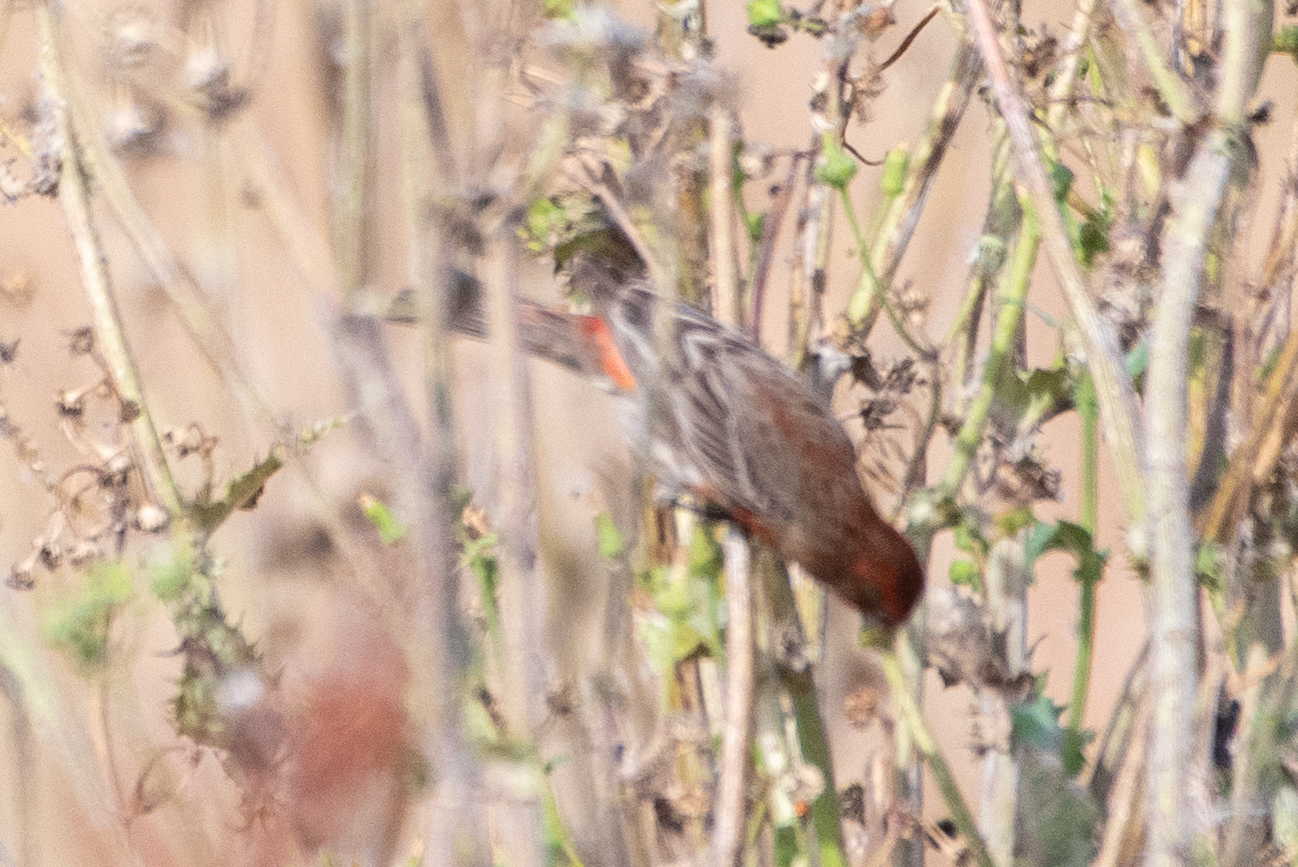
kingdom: Animalia
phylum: Chordata
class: Aves
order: Passeriformes
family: Fringillidae
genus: Haemorhous
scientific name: Haemorhous mexicanus
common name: House finch
